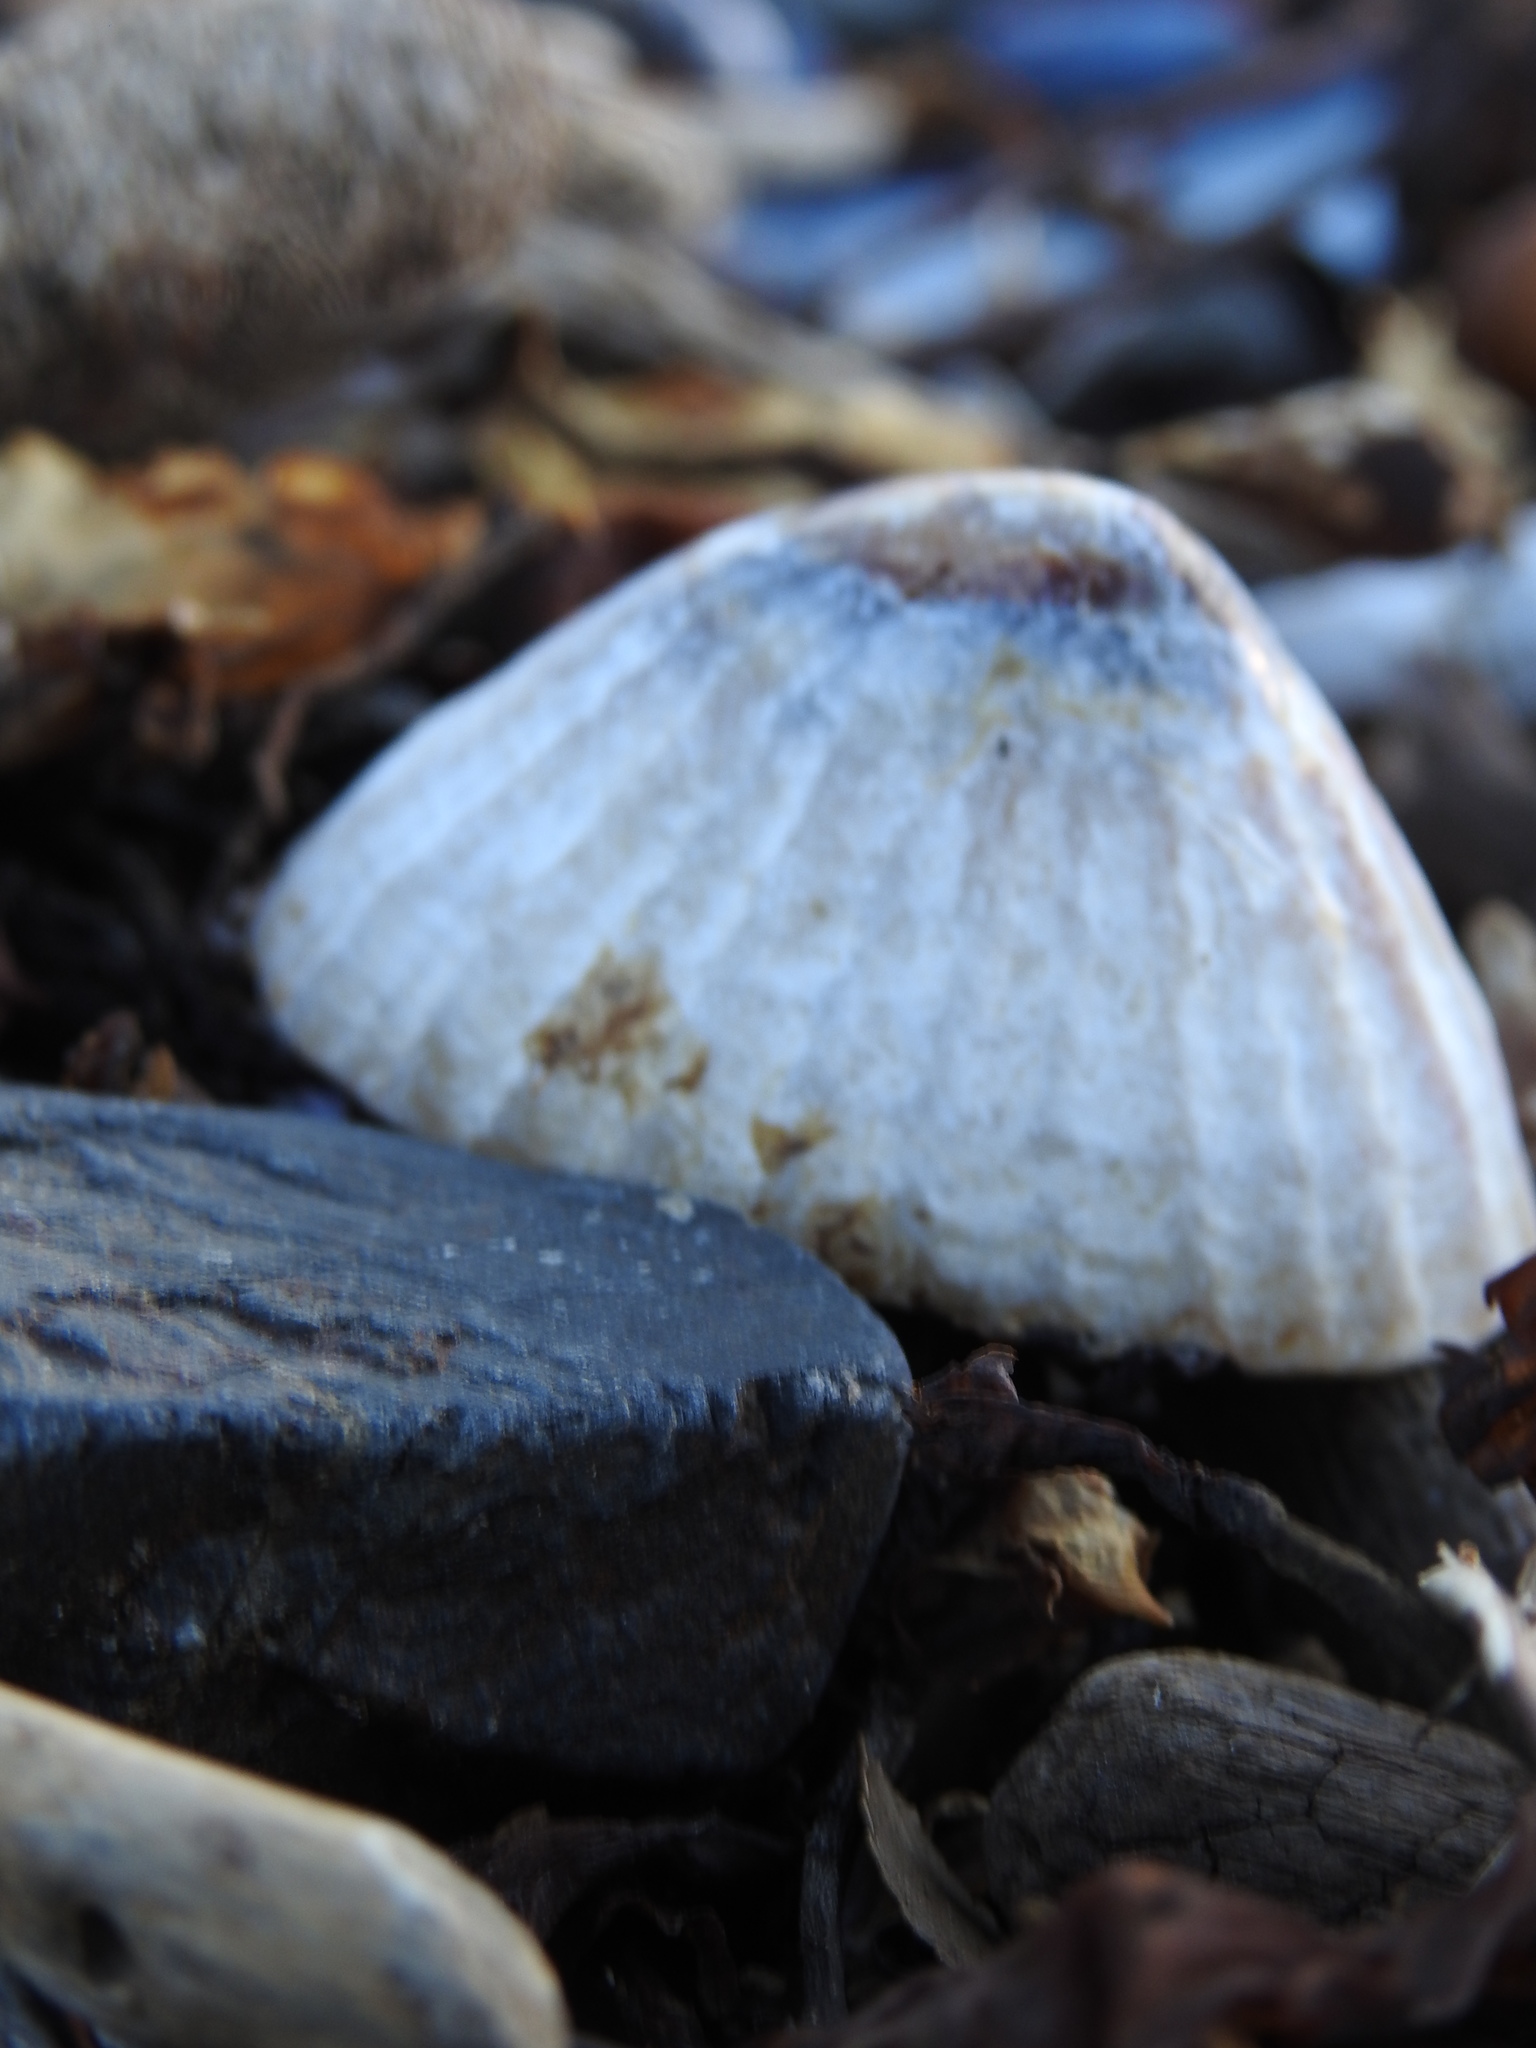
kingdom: Animalia
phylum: Mollusca
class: Gastropoda
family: Nacellidae
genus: Nacella
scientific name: Nacella magellanica
